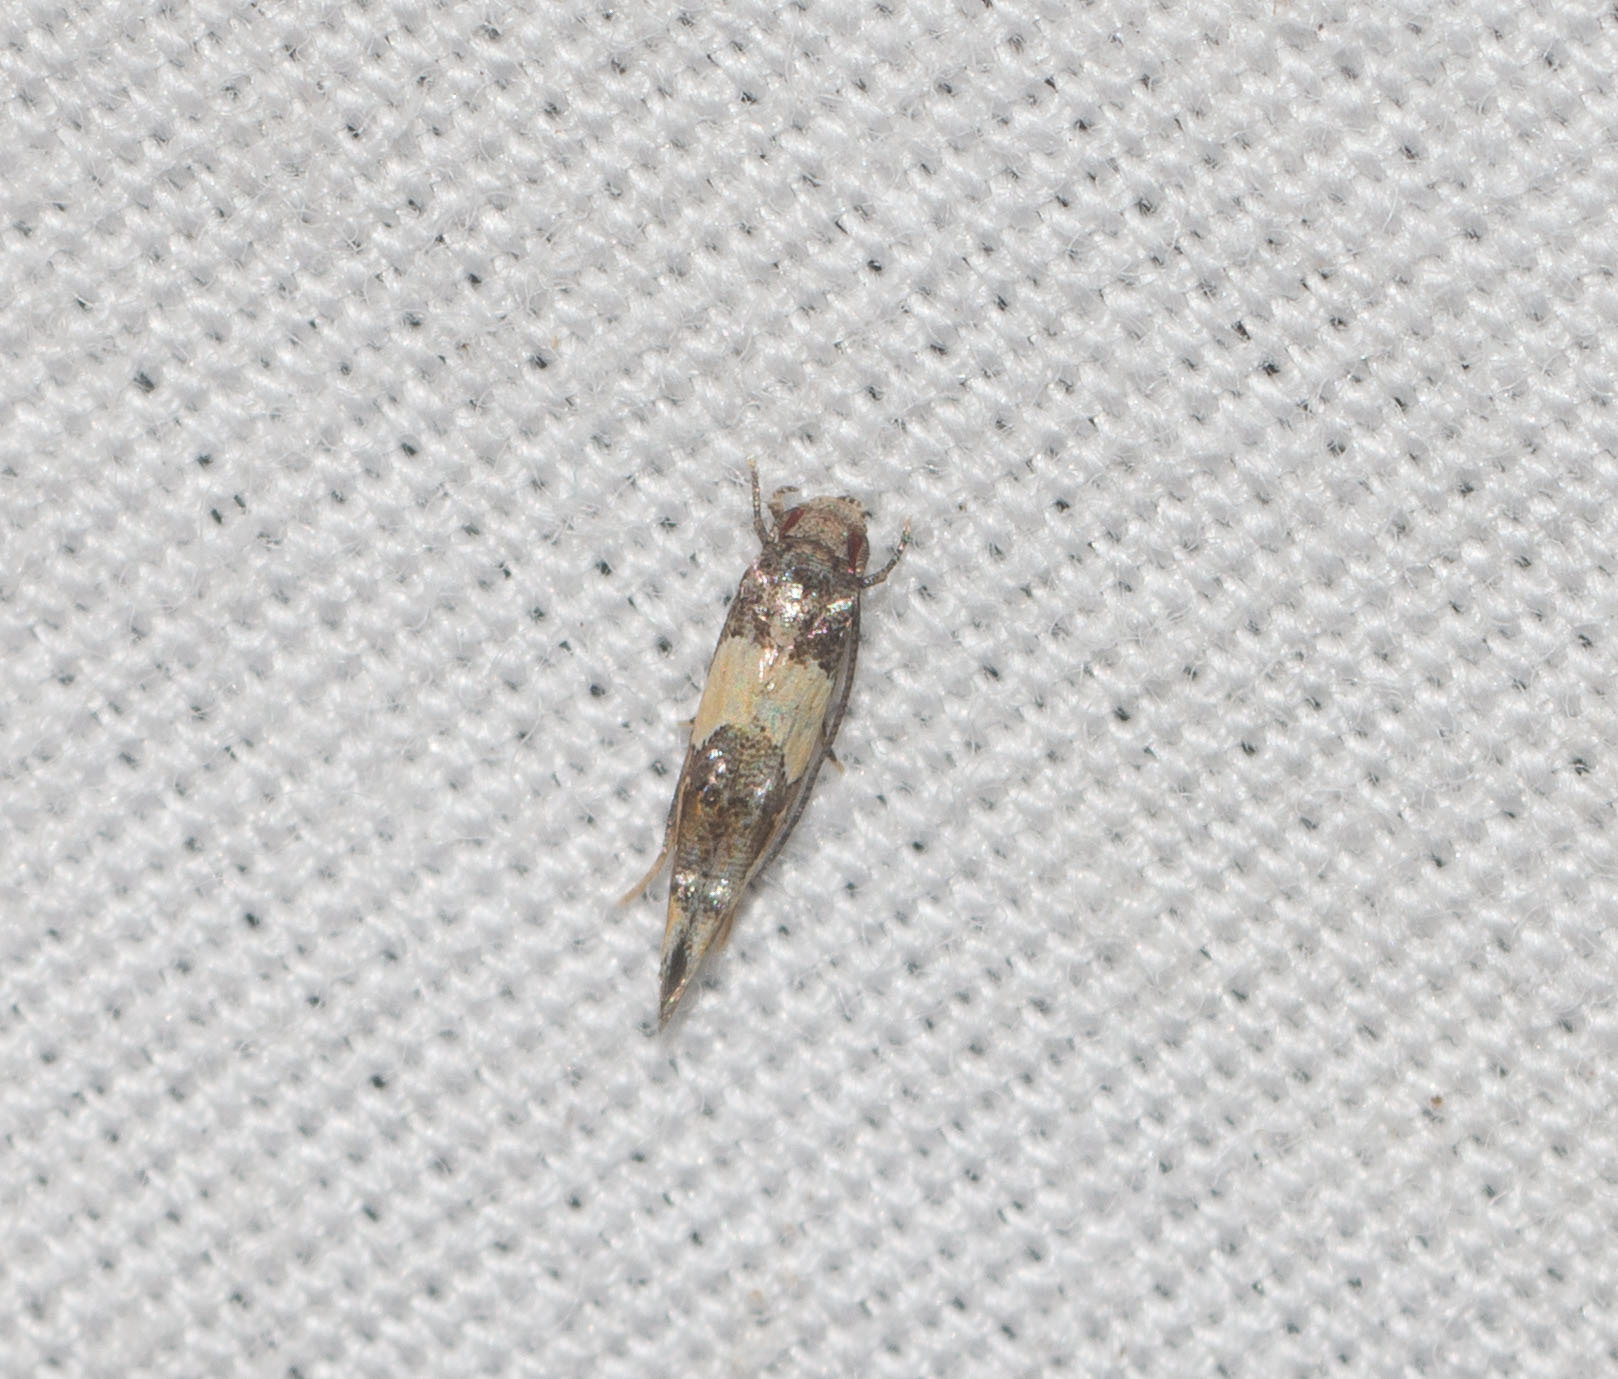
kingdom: Animalia
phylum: Arthropoda
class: Insecta
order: Lepidoptera
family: Momphidae
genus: Mompha
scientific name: Mompha trithalama
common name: Moth
